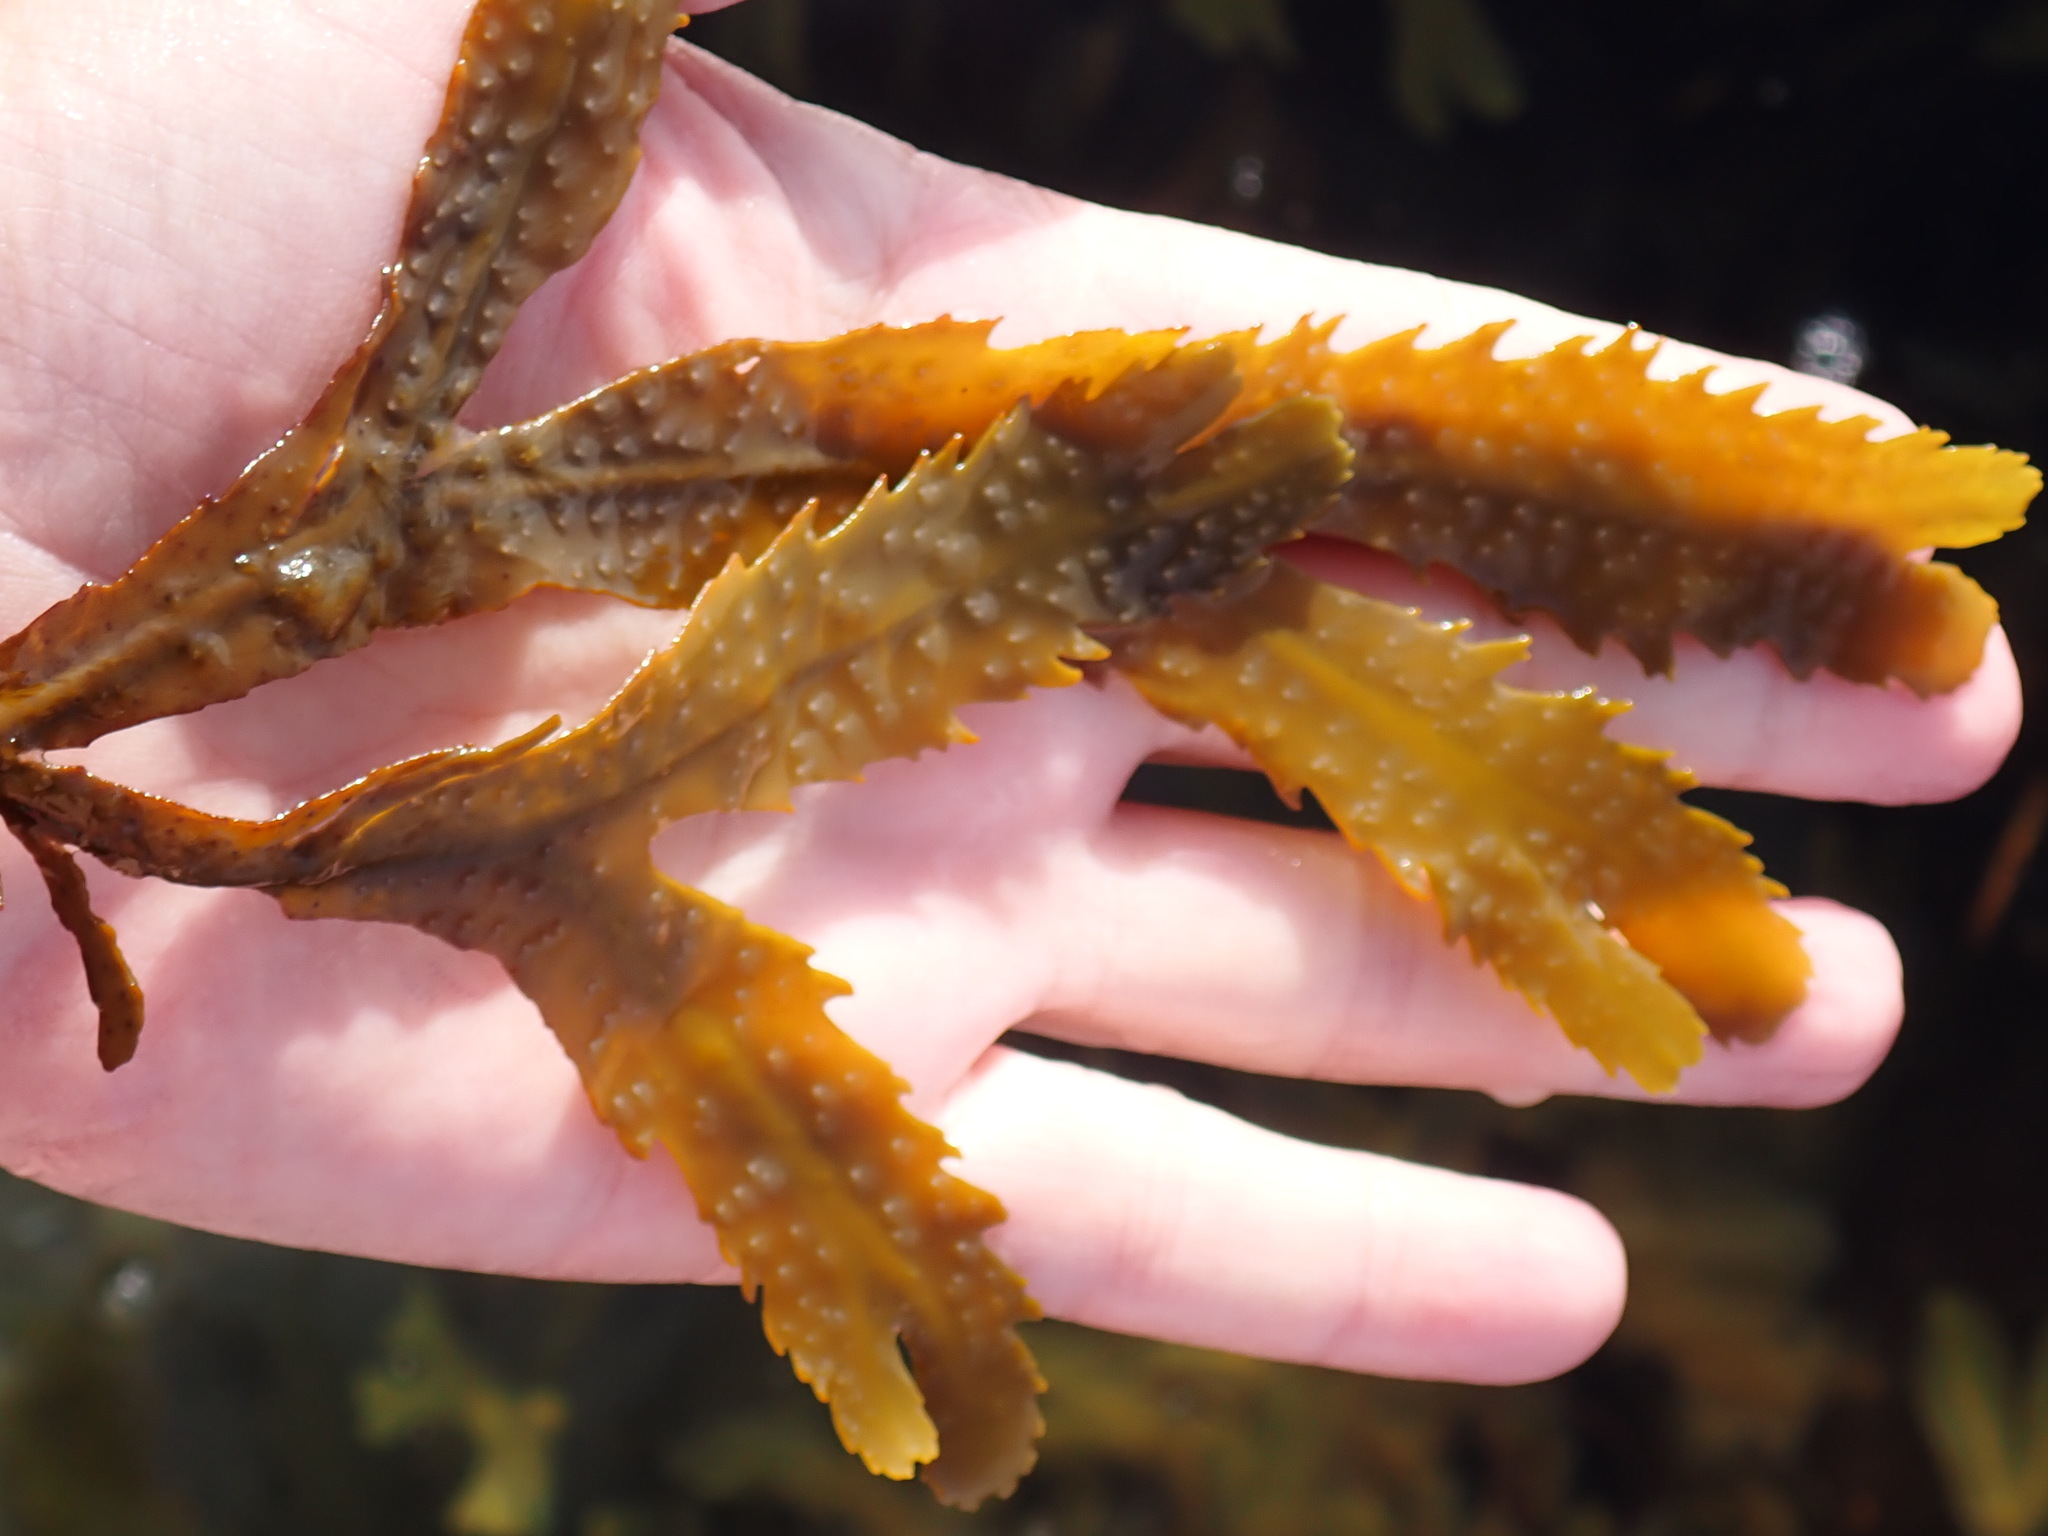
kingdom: Chromista
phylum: Ochrophyta
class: Phaeophyceae
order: Fucales
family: Fucaceae
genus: Fucus
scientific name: Fucus serratus
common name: Toothed wrack
